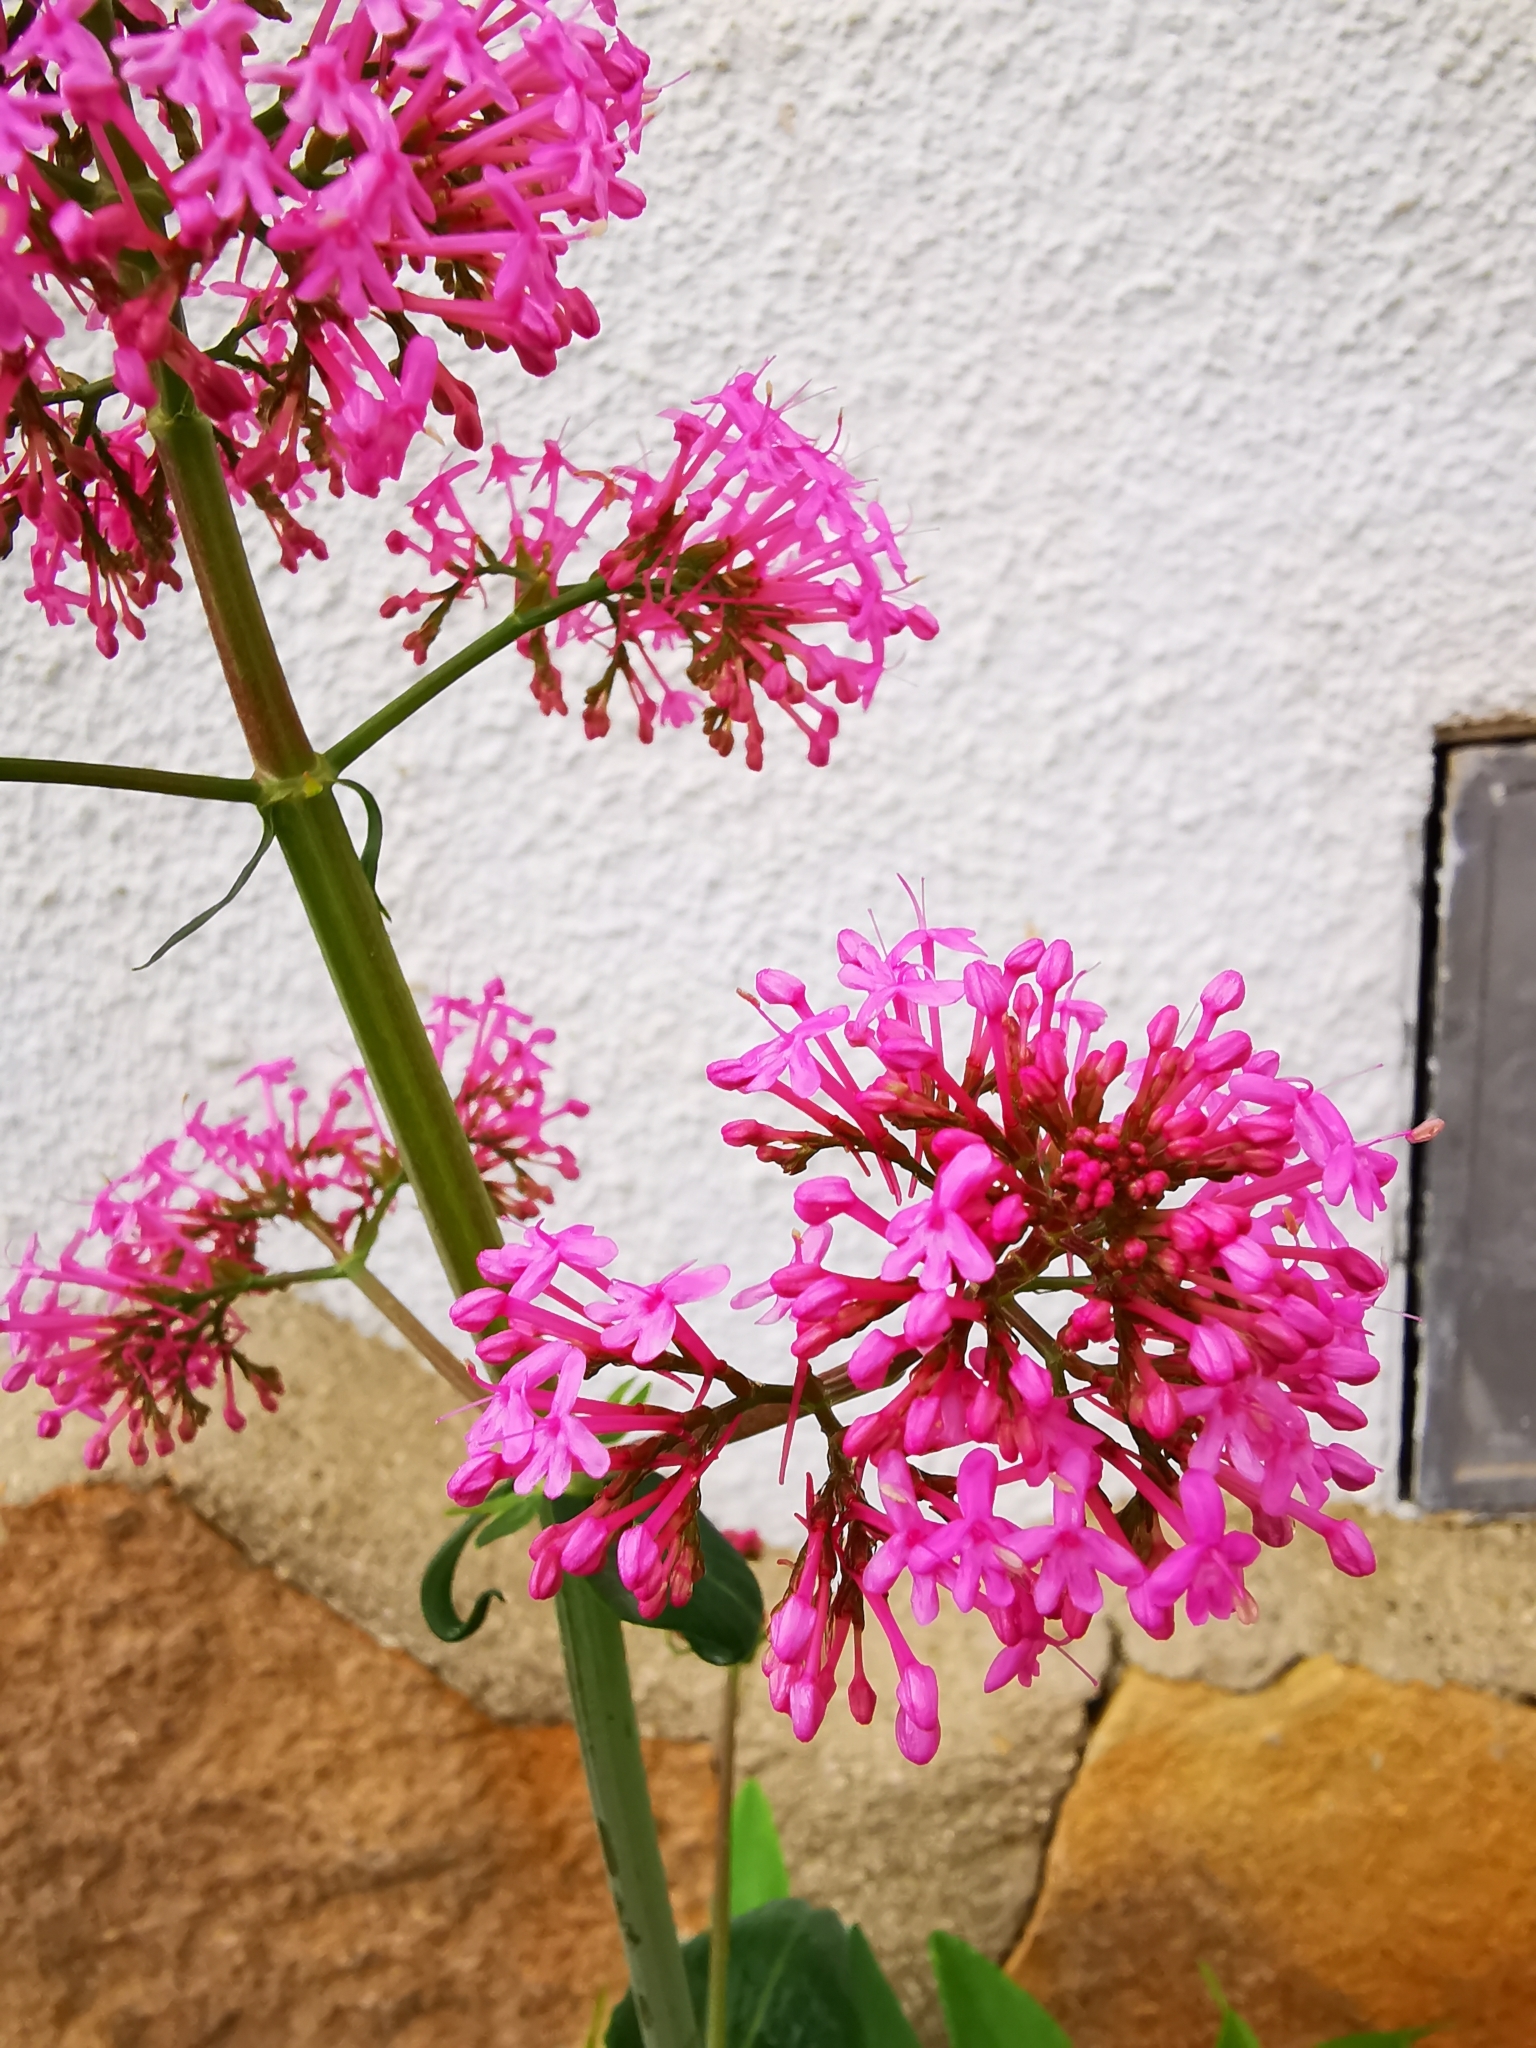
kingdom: Plantae
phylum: Tracheophyta
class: Magnoliopsida
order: Dipsacales
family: Caprifoliaceae
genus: Centranthus
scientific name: Centranthus ruber
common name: Red valerian
